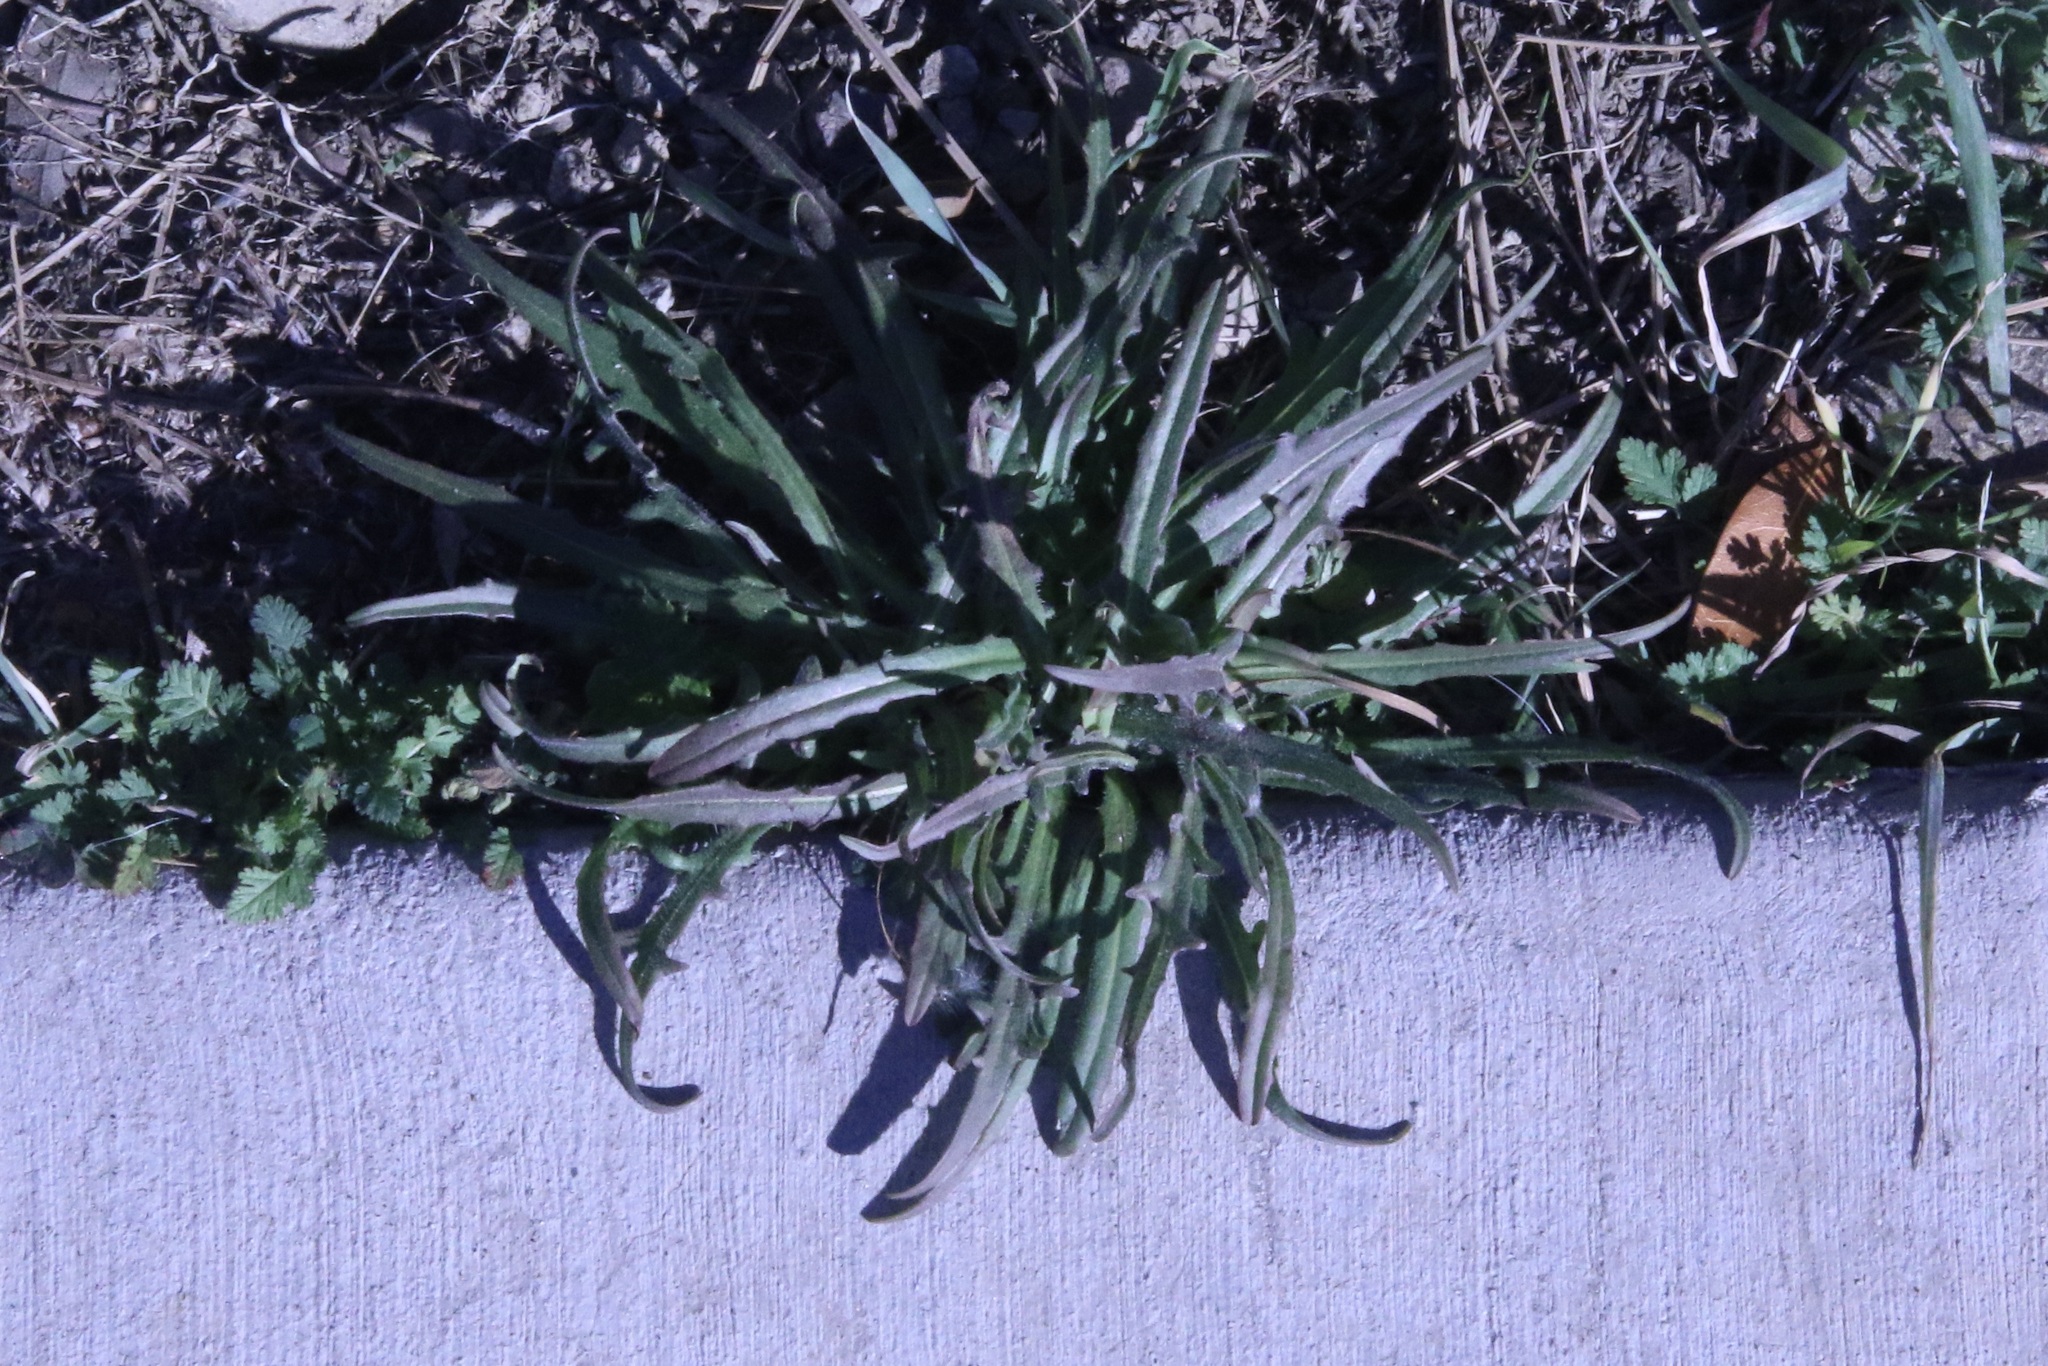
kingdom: Plantae
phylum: Tracheophyta
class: Magnoliopsida
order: Lamiales
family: Plantaginaceae
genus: Plantago
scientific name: Plantago coronopus
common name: Buck's-horn plantain
